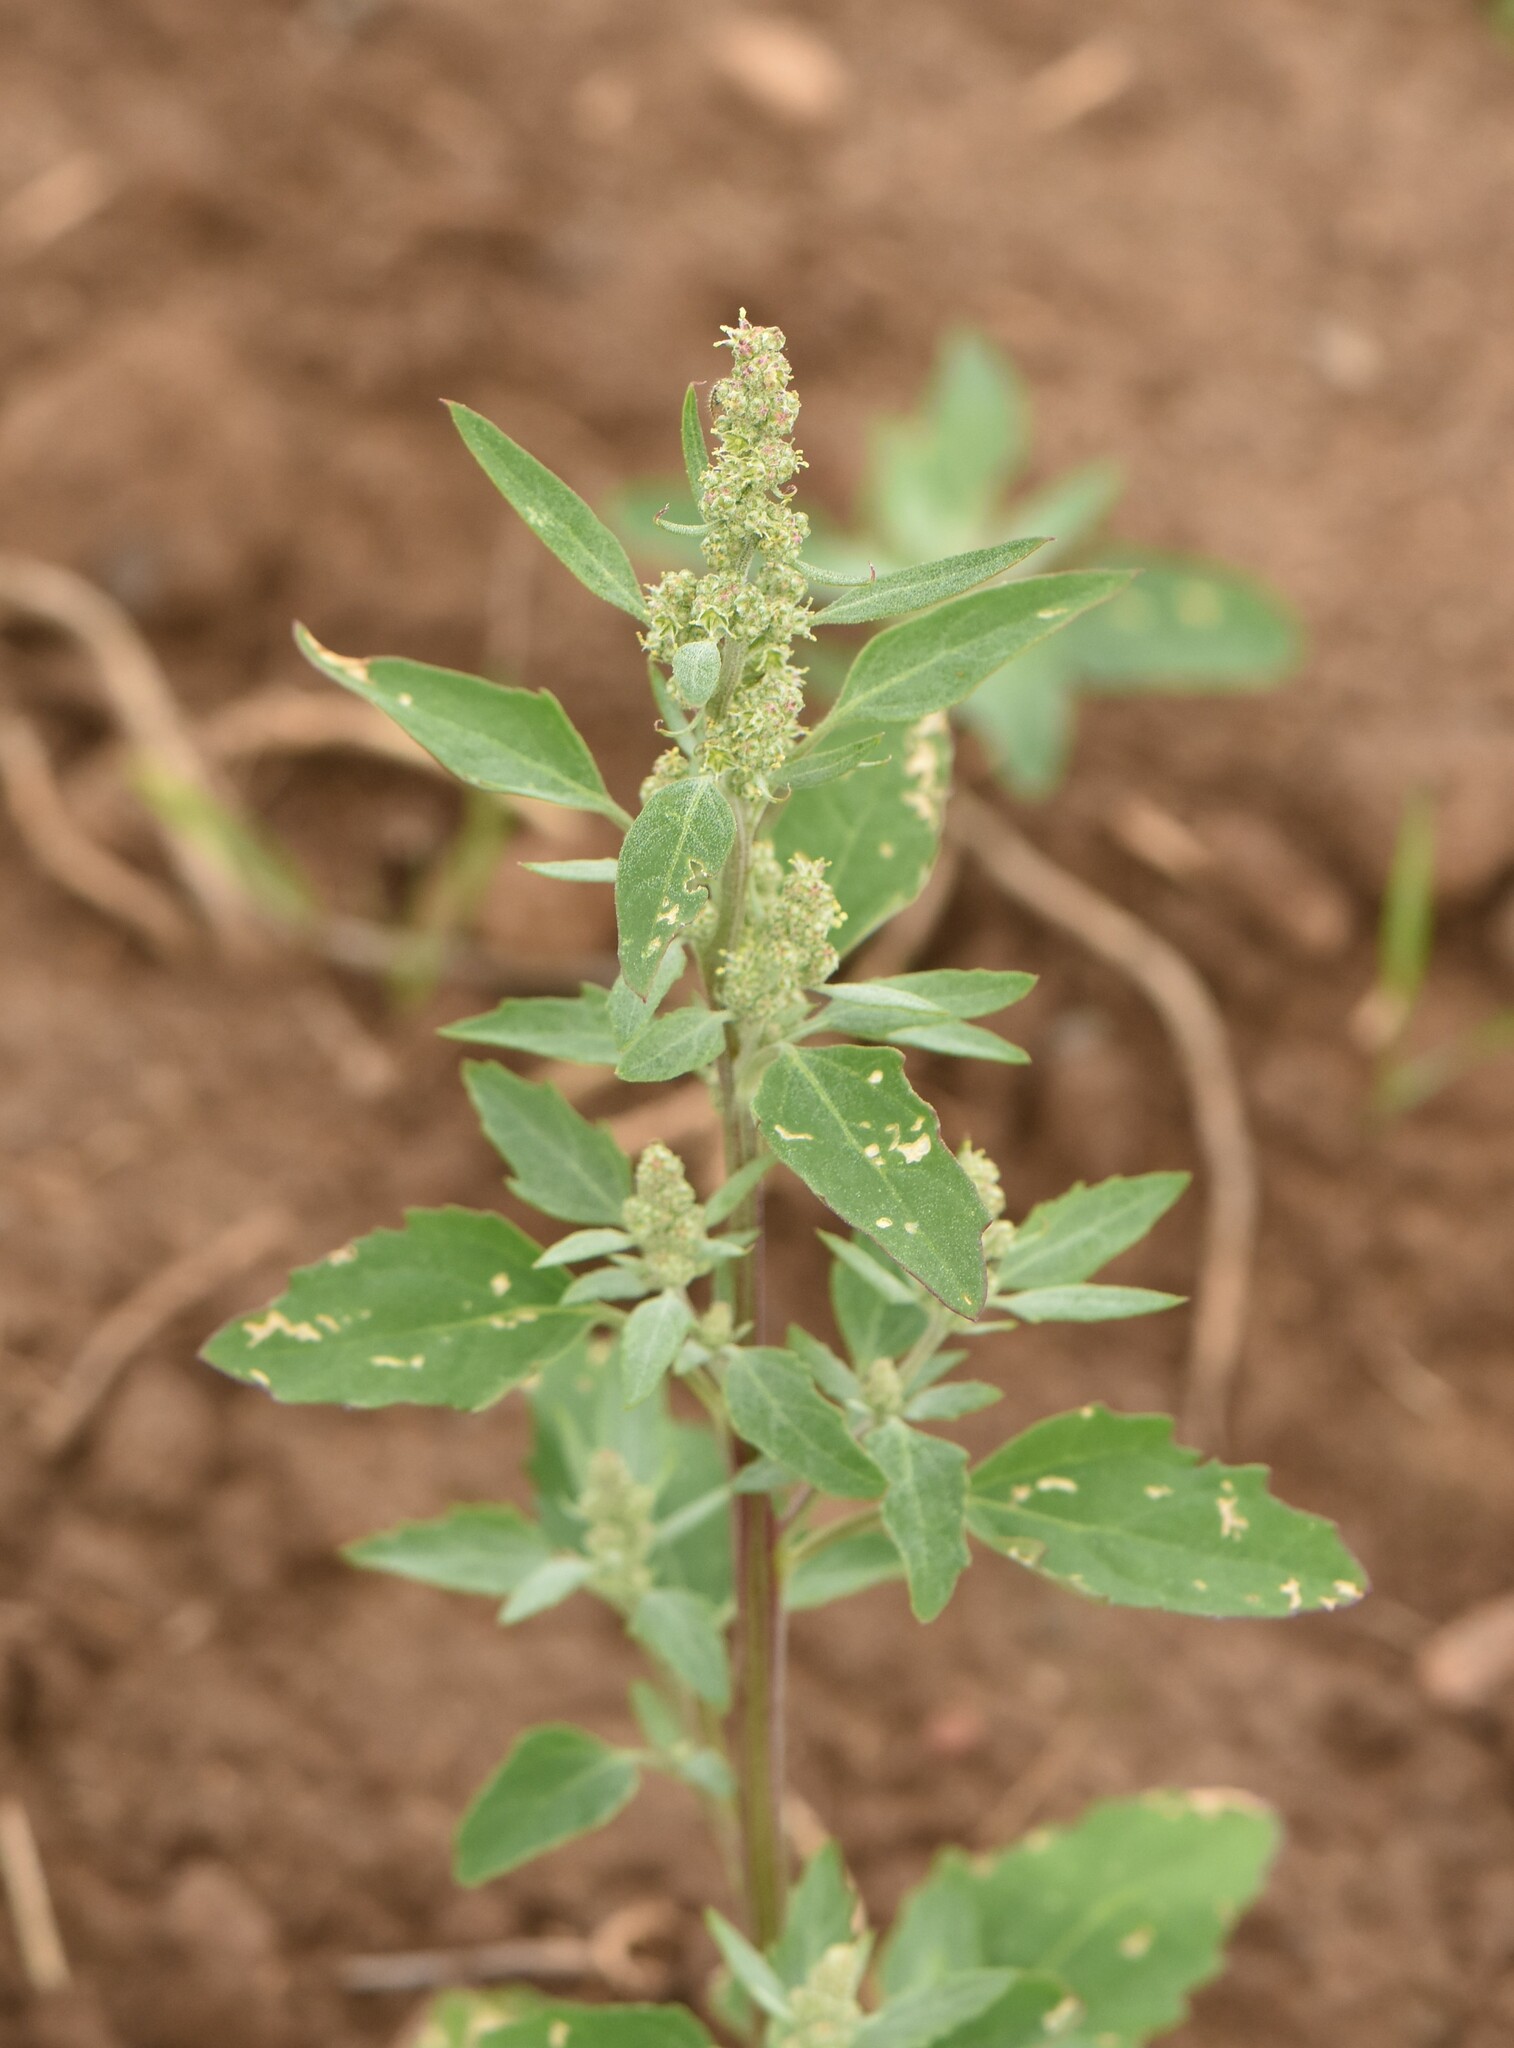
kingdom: Plantae
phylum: Tracheophyta
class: Magnoliopsida
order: Caryophyllales
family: Amaranthaceae
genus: Chenopodium
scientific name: Chenopodium album
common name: Fat-hen
